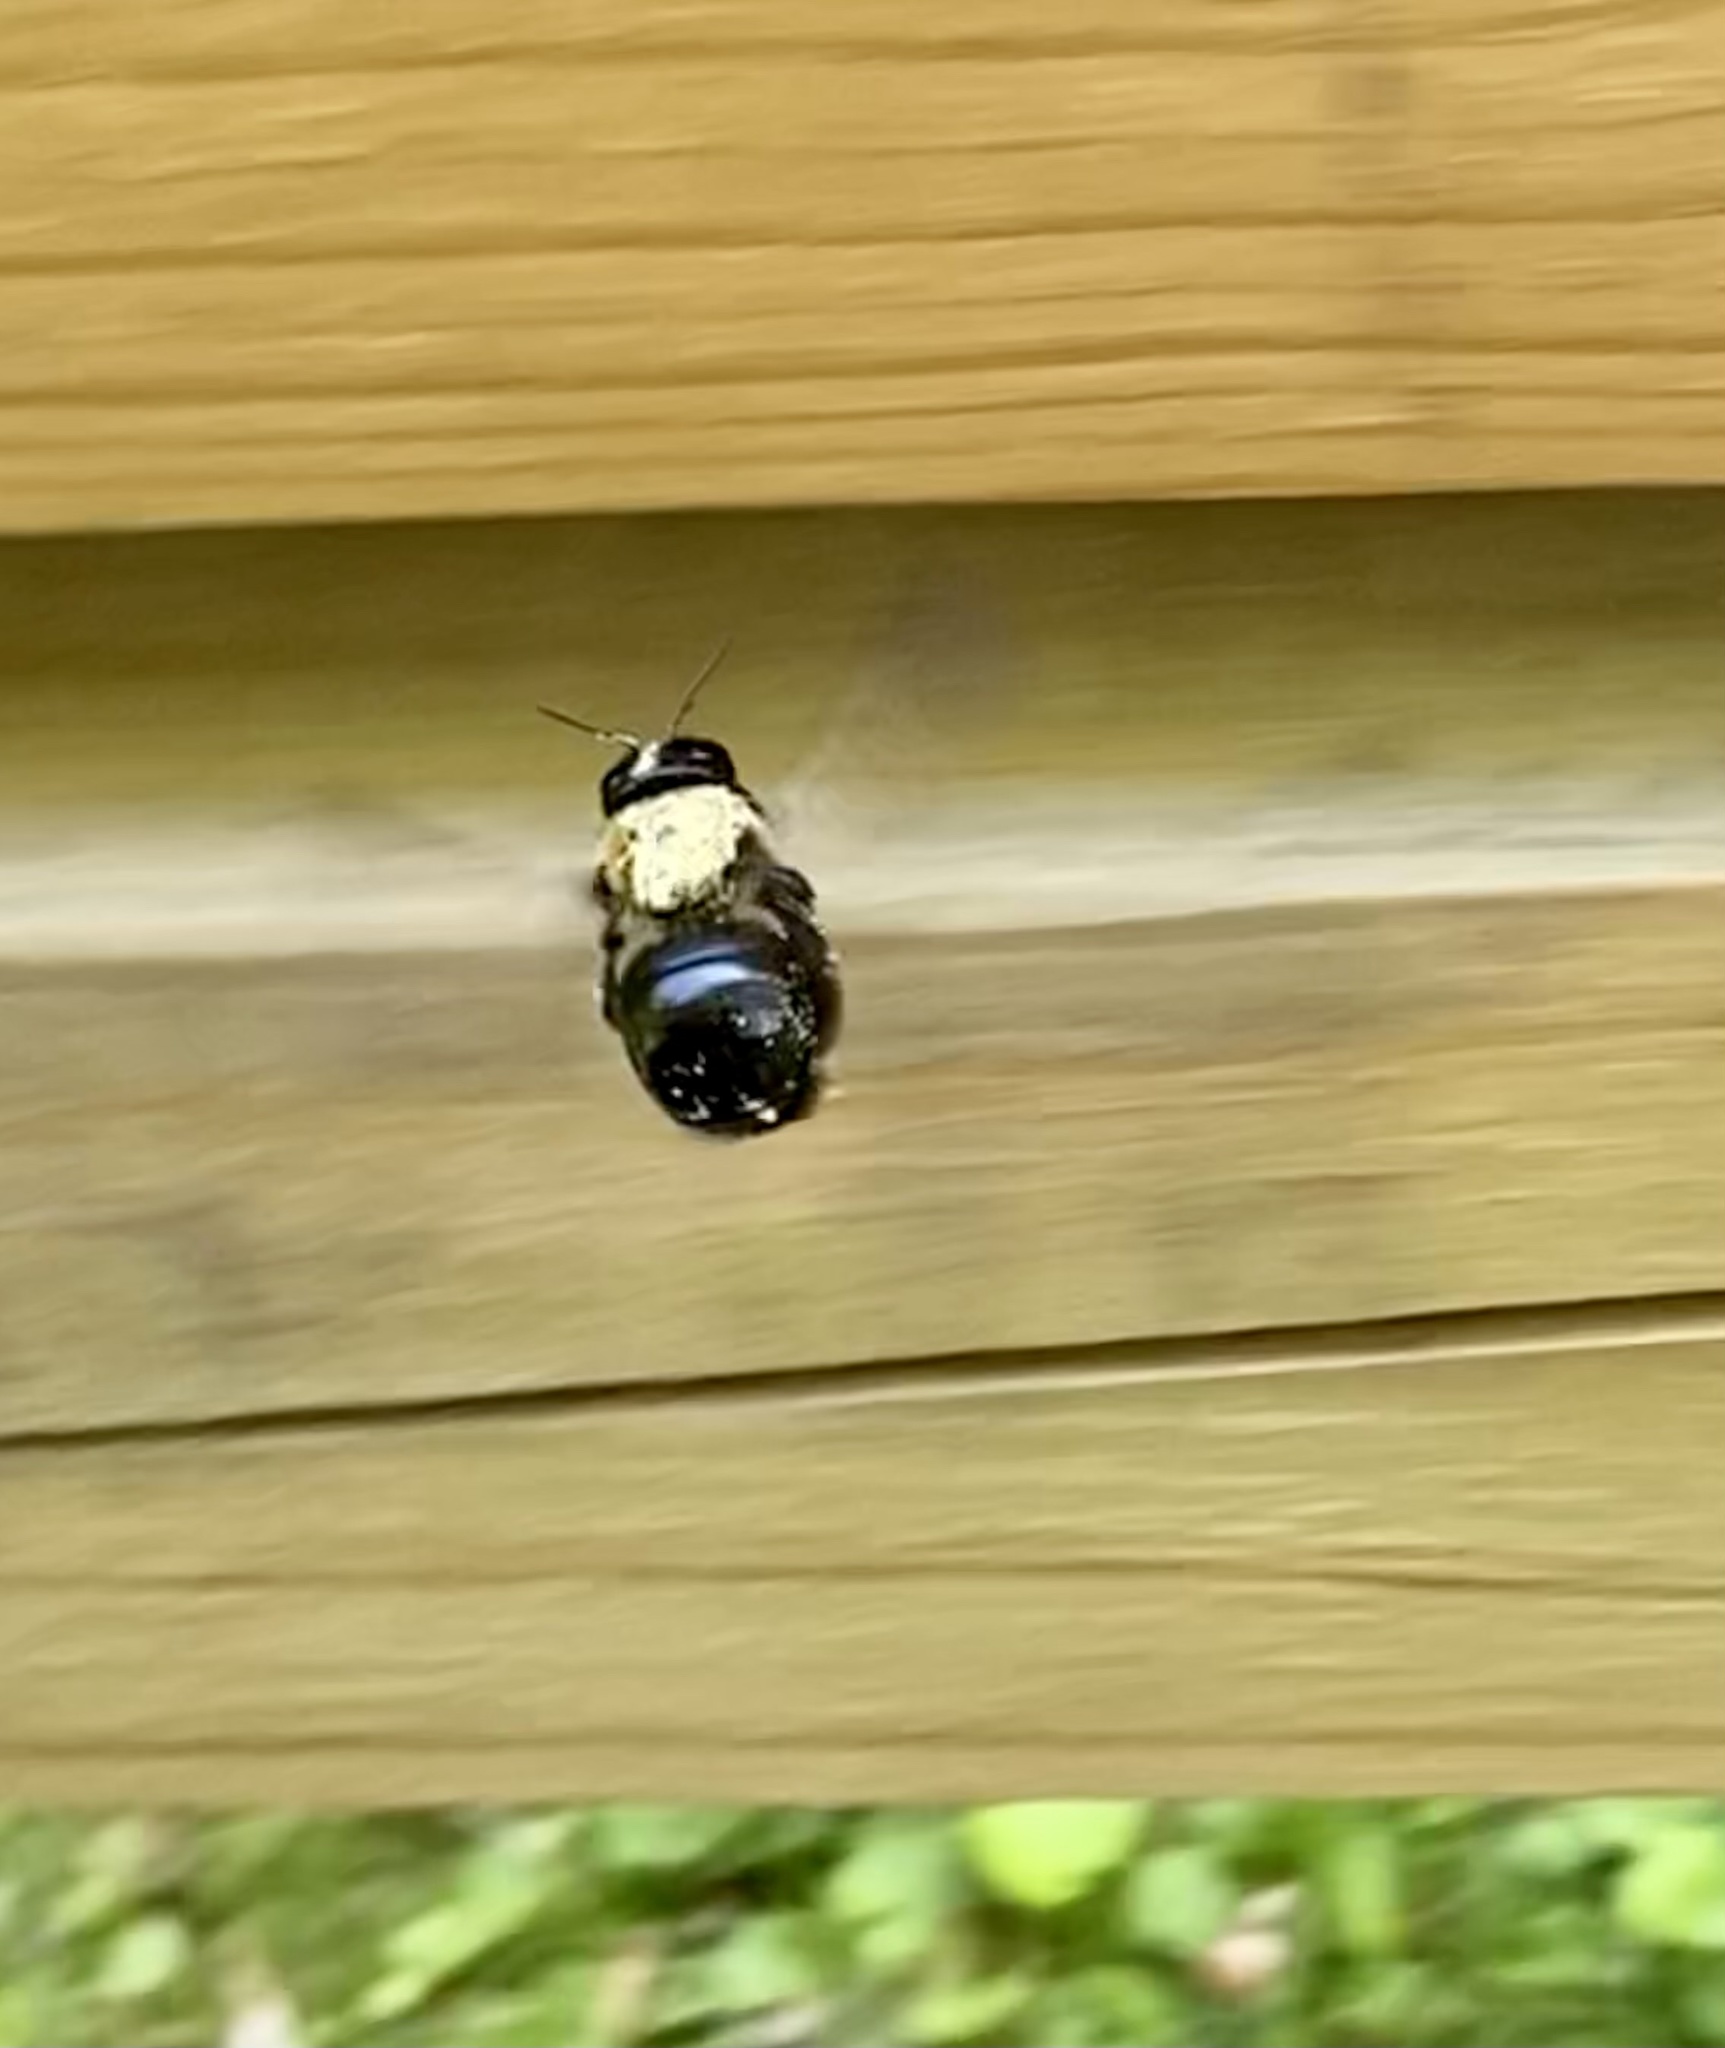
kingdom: Animalia
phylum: Arthropoda
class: Insecta
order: Hymenoptera
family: Apidae
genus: Xylocopa
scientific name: Xylocopa virginica
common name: Carpenter bee
